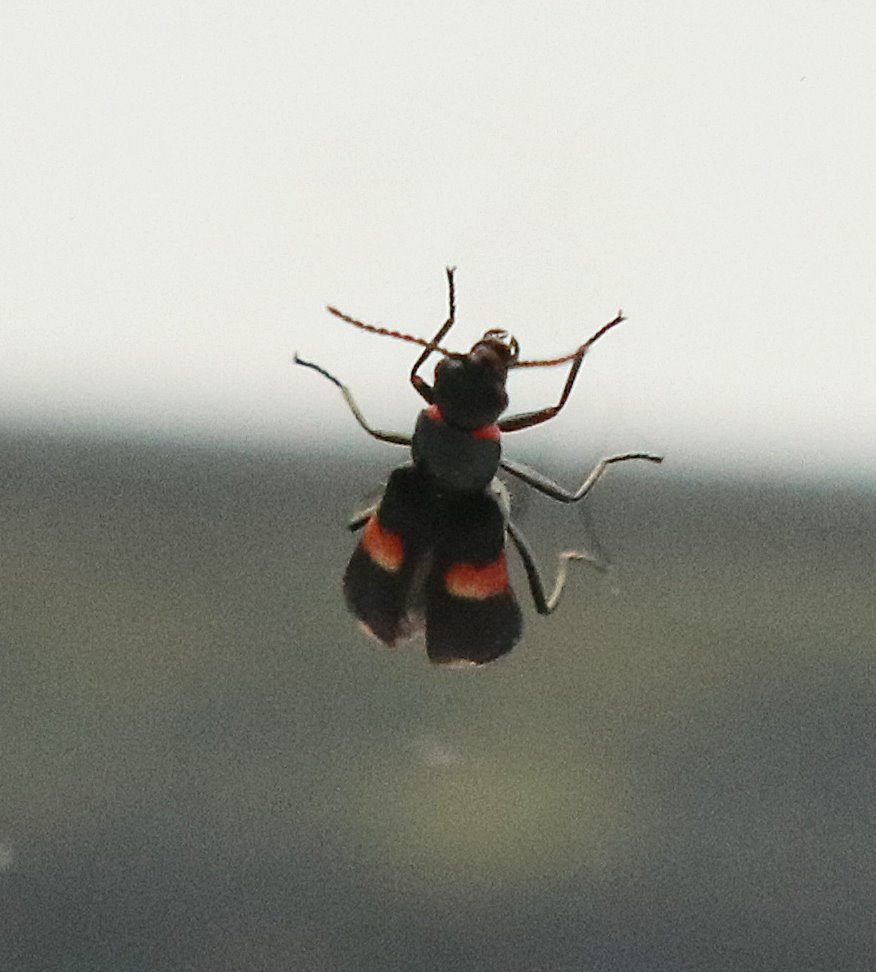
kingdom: Animalia
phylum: Arthropoda
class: Insecta
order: Coleoptera
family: Melyridae
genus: Anthocomus
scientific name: Anthocomus fasciatus
